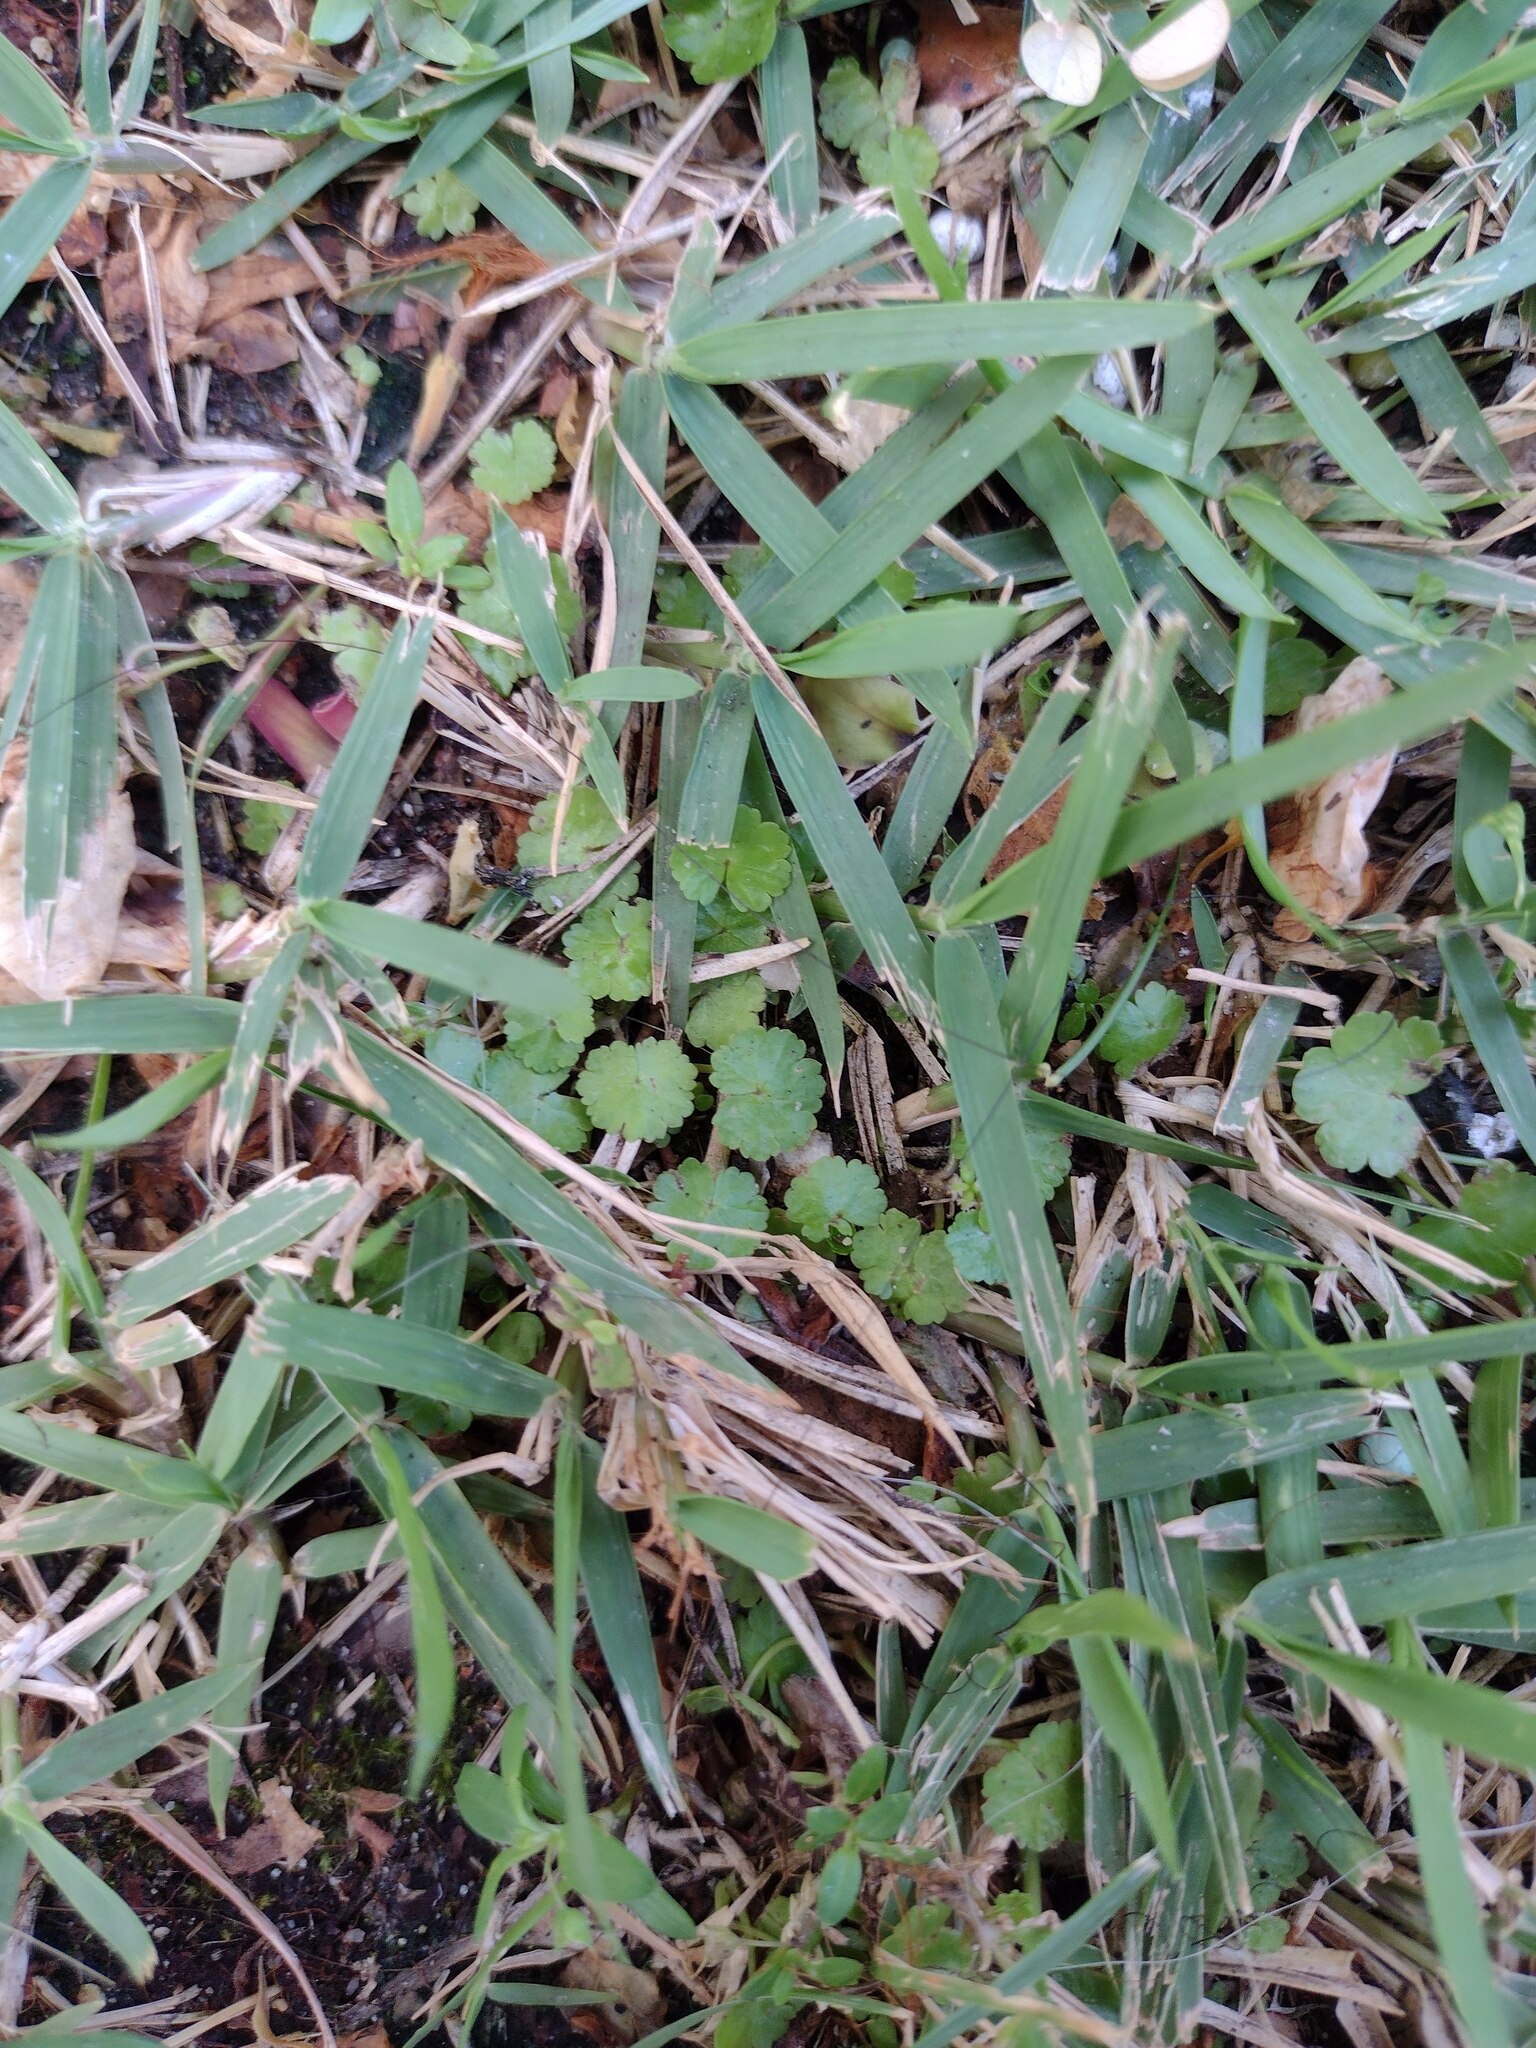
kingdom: Plantae
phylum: Tracheophyta
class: Magnoliopsida
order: Apiales
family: Araliaceae
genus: Hydrocotyle
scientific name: Hydrocotyle sibthorpioides
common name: Lawn marshpennywort
